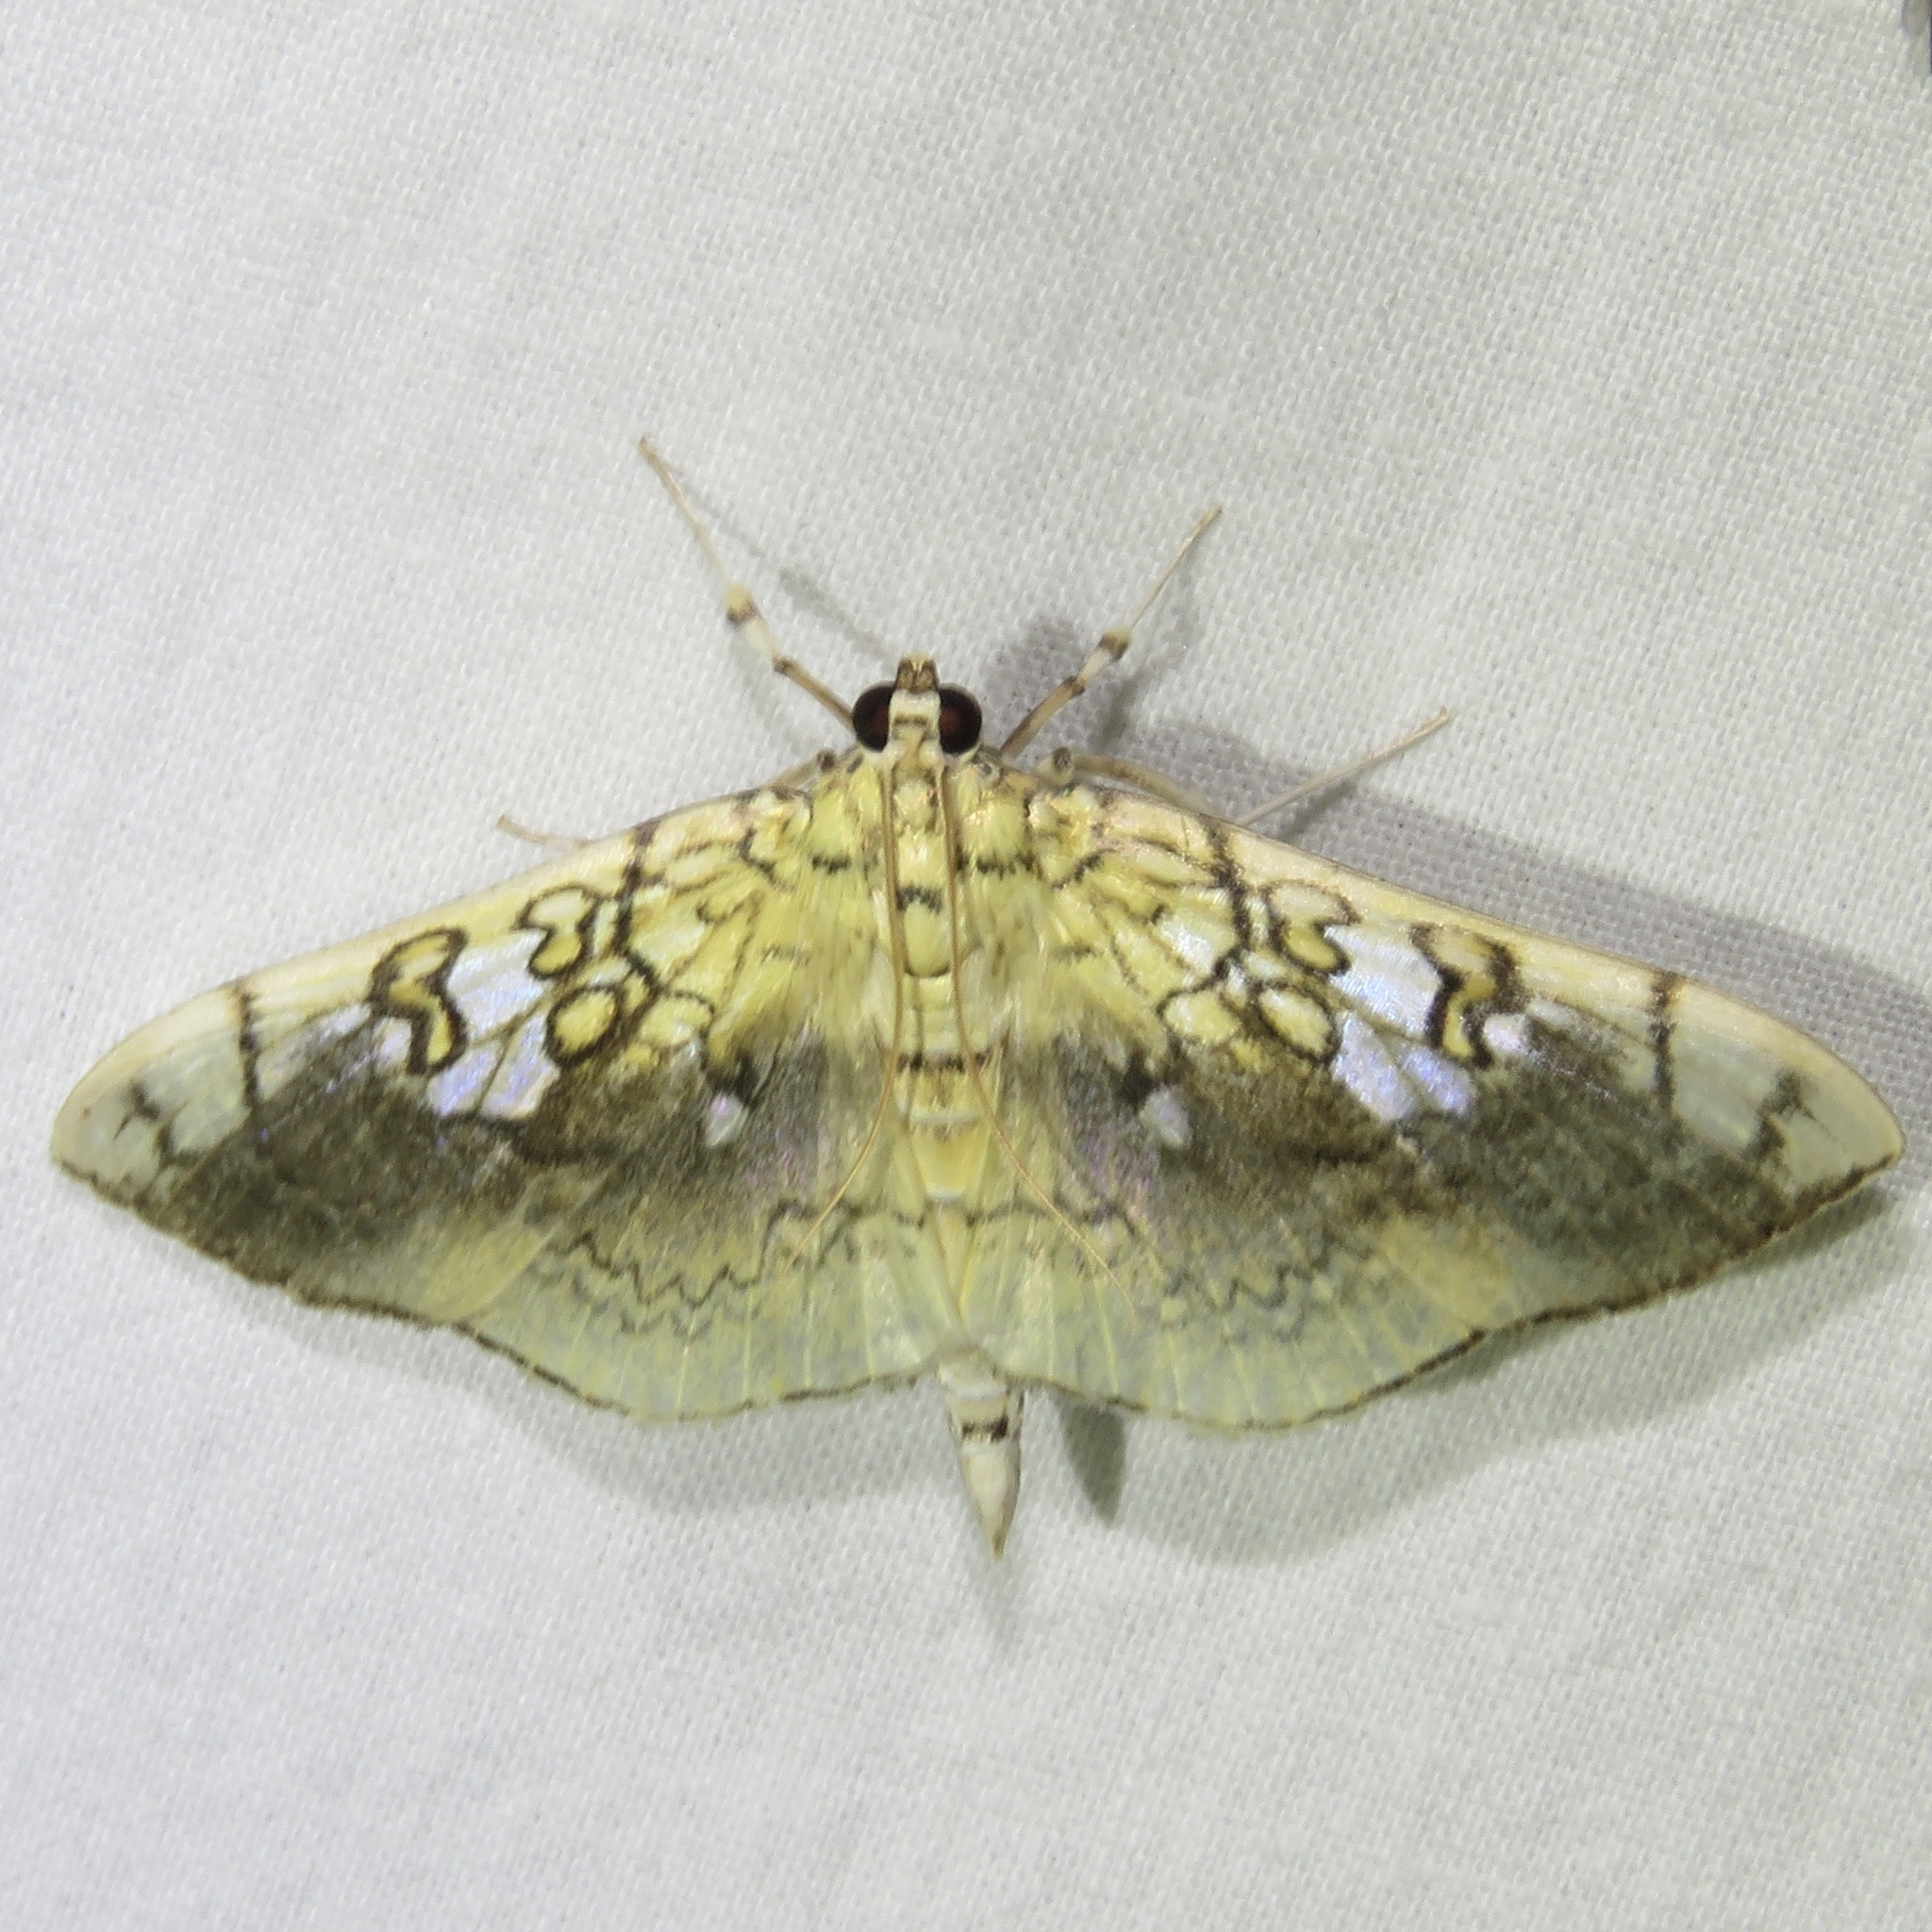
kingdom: Animalia
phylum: Arthropoda
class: Insecta
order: Lepidoptera
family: Crambidae
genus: Pantographa
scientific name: Pantographa limata
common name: Basswood leafroller moth
